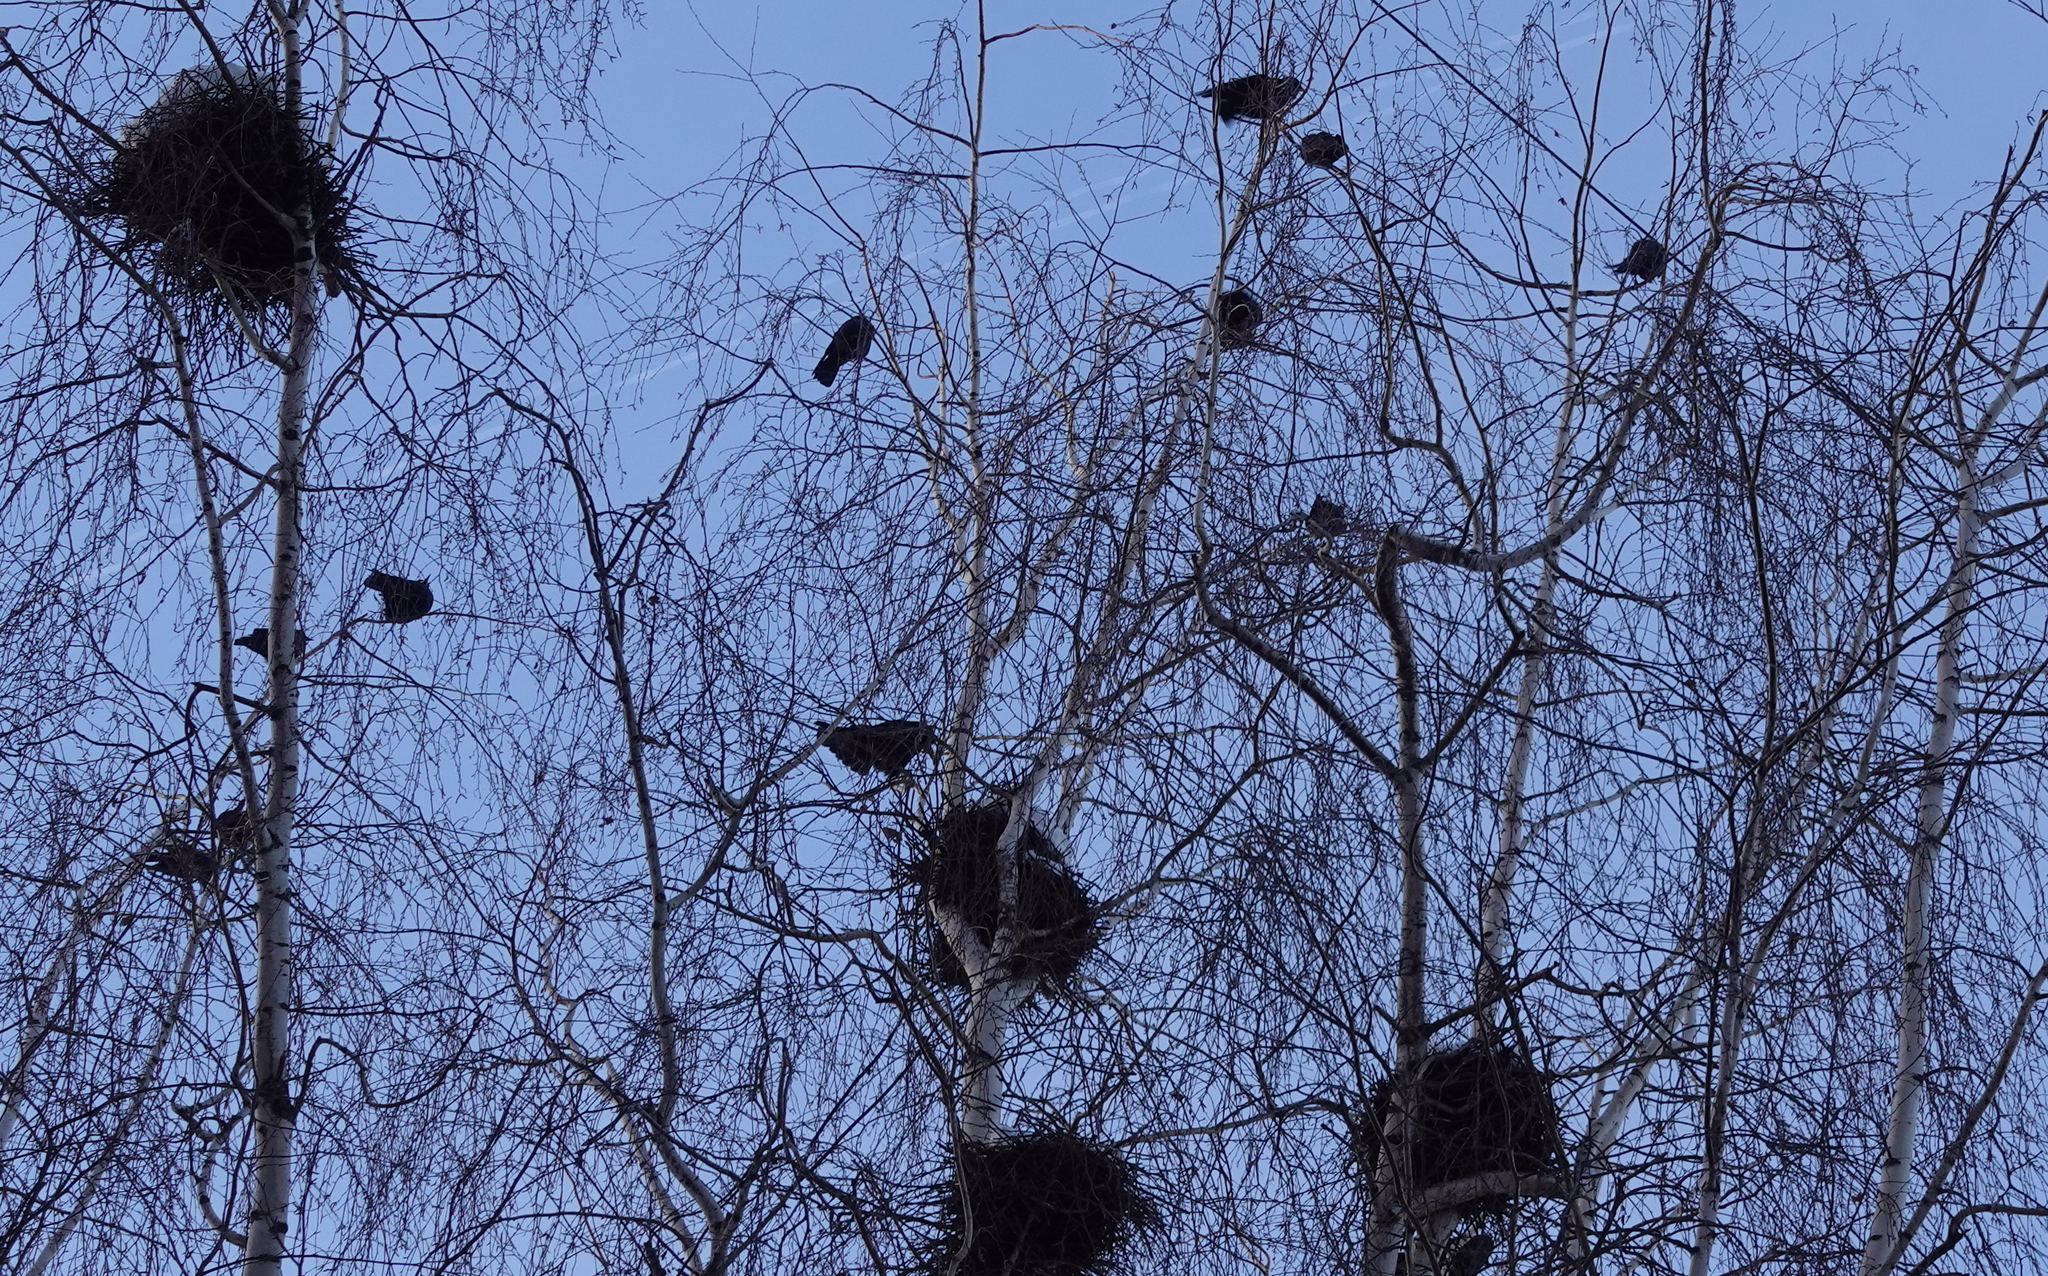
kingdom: Animalia
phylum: Chordata
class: Aves
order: Passeriformes
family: Corvidae
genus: Corvus
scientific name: Corvus frugilegus
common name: Rook
